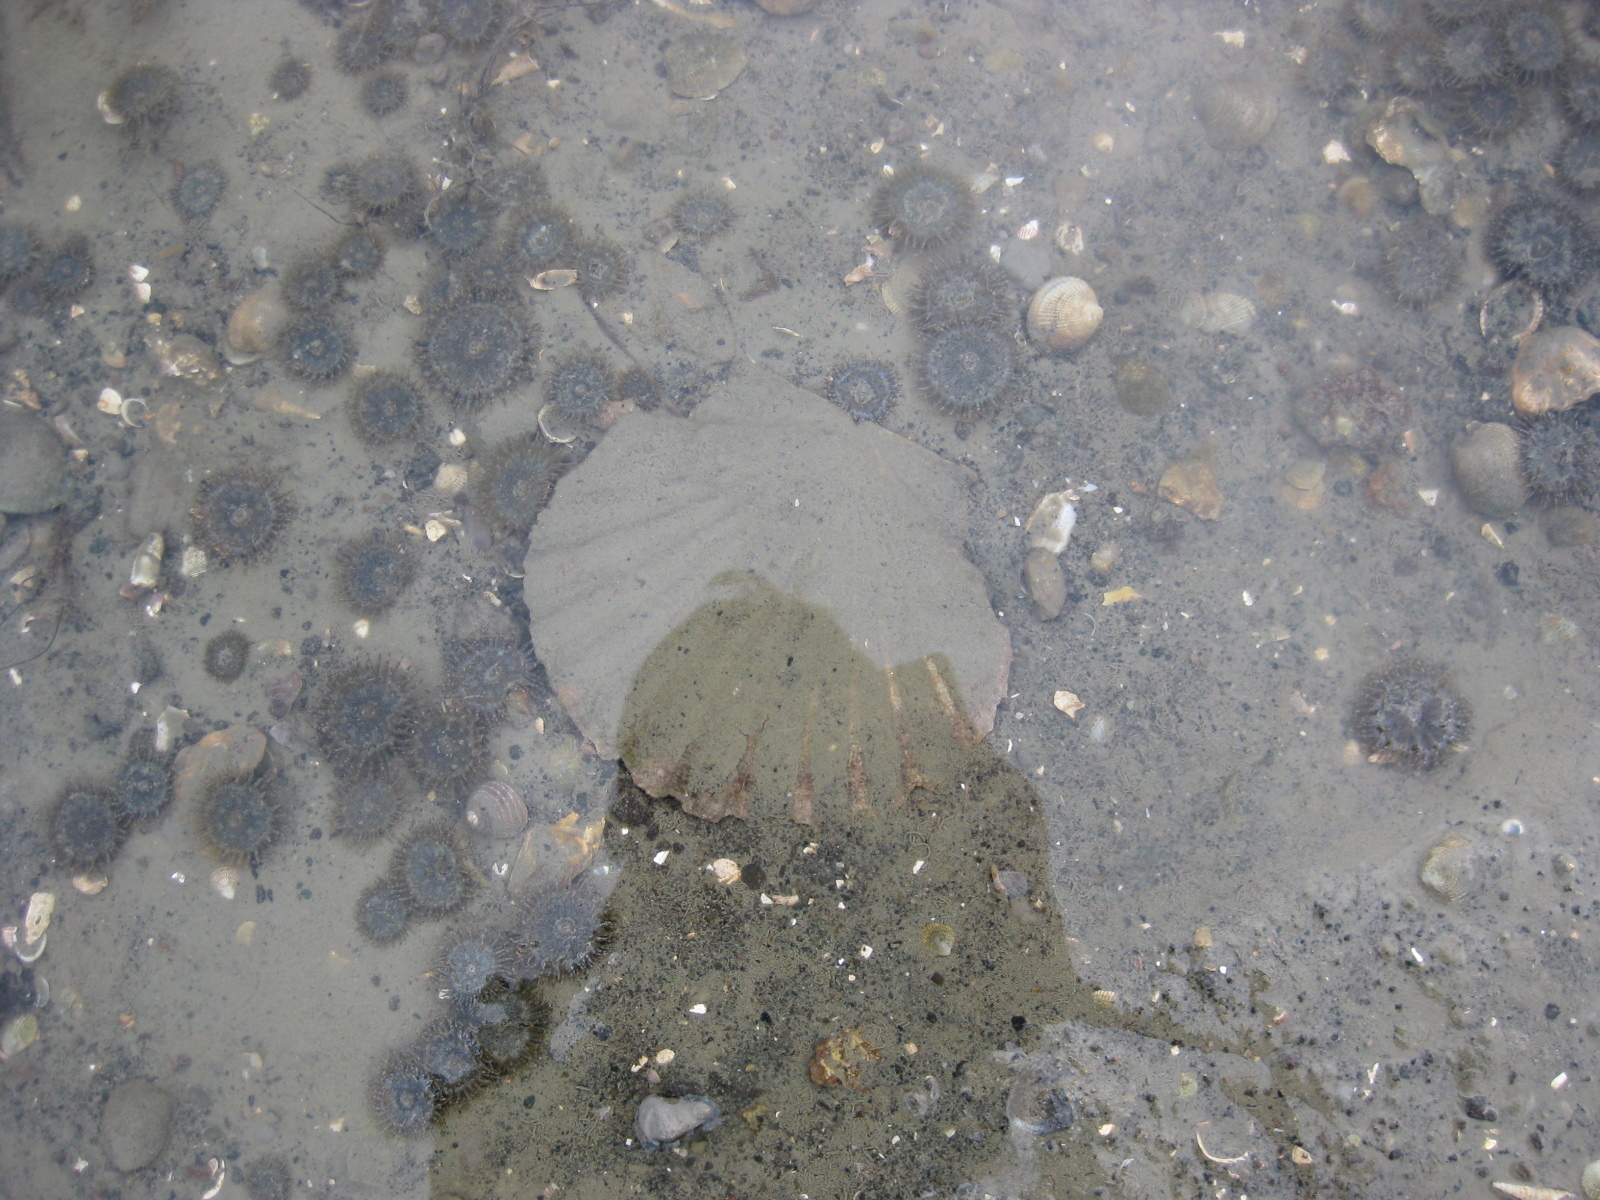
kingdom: Animalia
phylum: Mollusca
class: Bivalvia
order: Pectinida
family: Pectinidae
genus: Pecten
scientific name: Pecten novaezelandiae
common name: New zealand scallop
